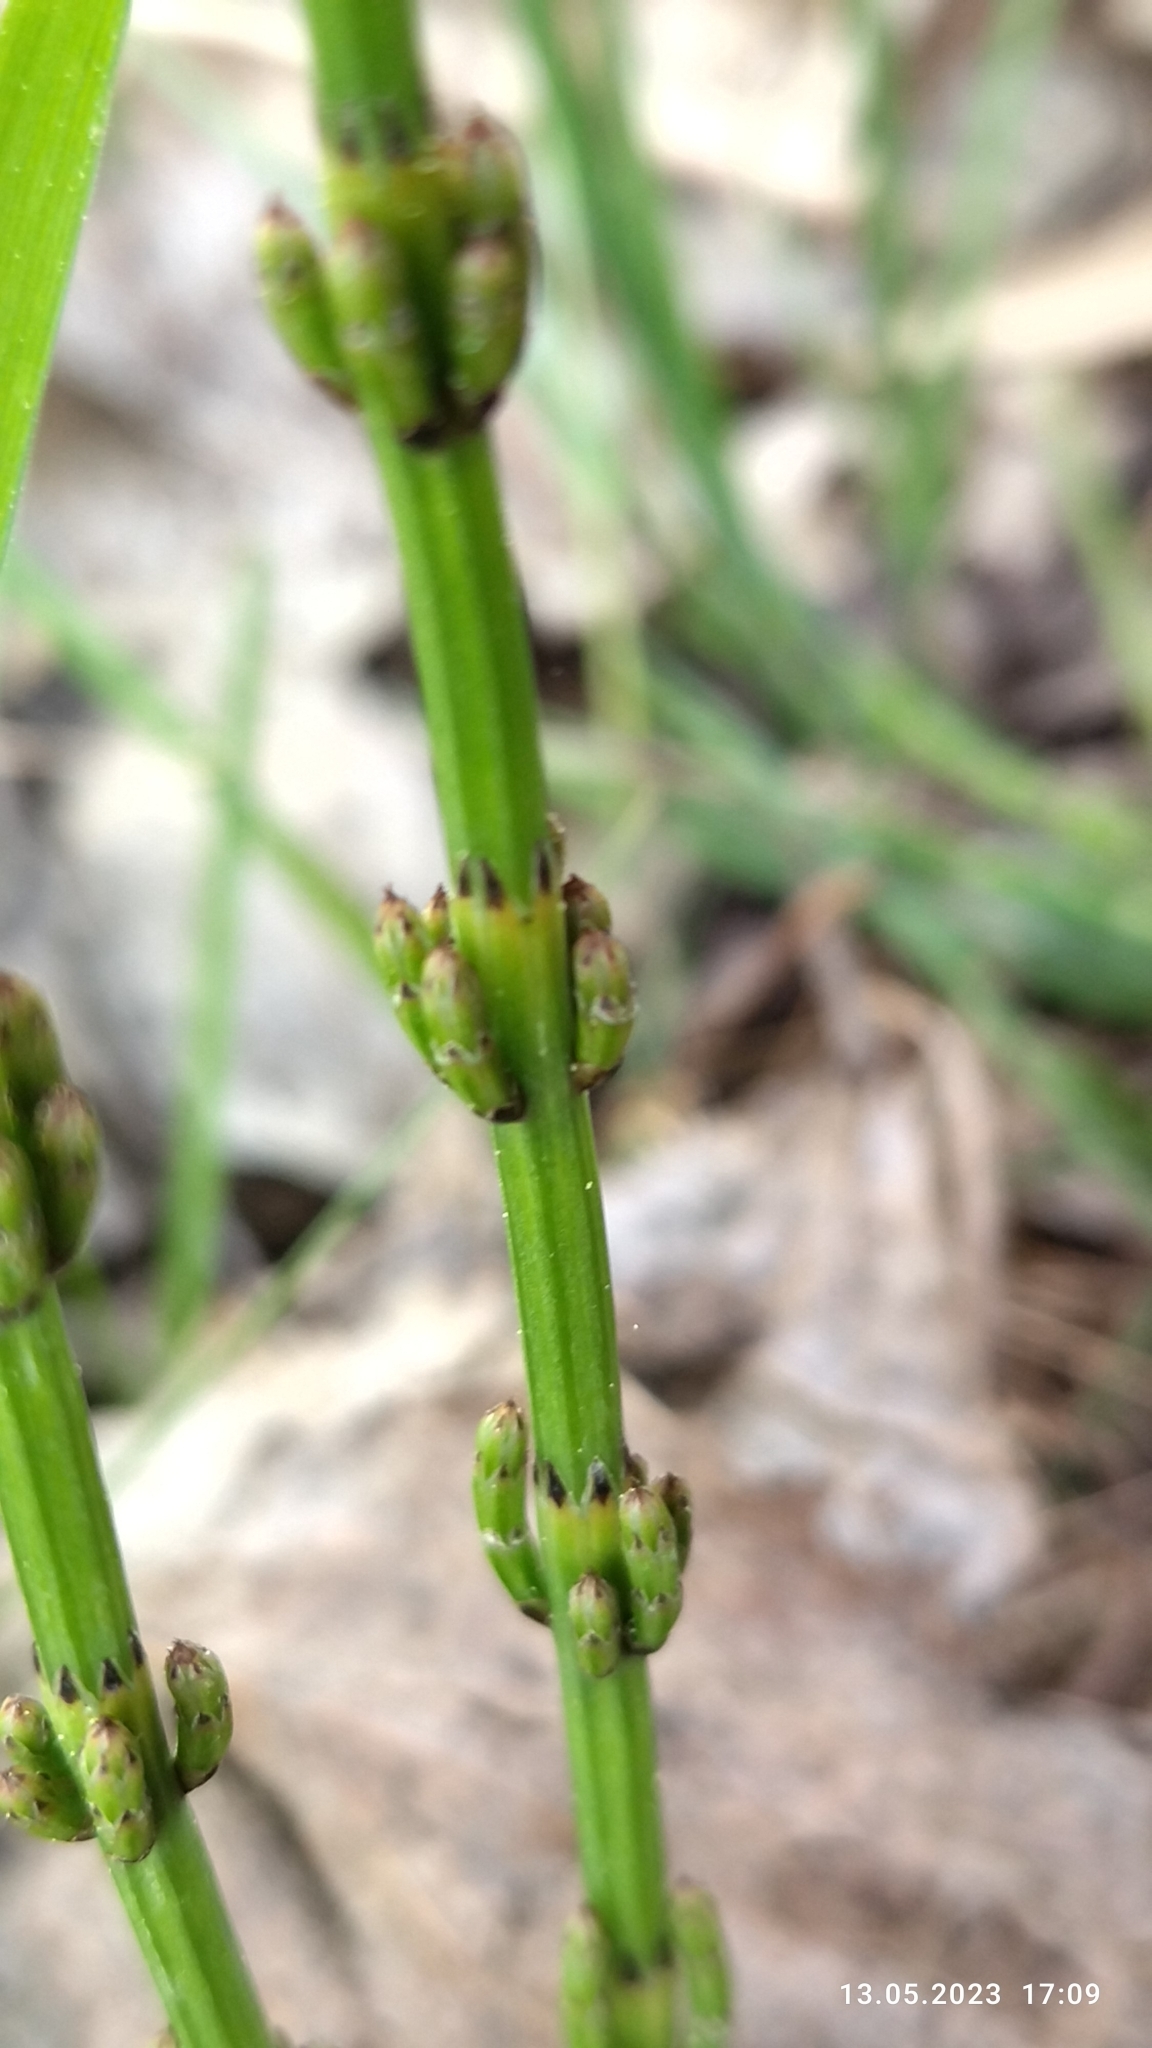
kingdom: Plantae
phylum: Tracheophyta
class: Polypodiopsida
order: Equisetales
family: Equisetaceae
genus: Equisetum
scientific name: Equisetum palustre
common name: Marsh horsetail
